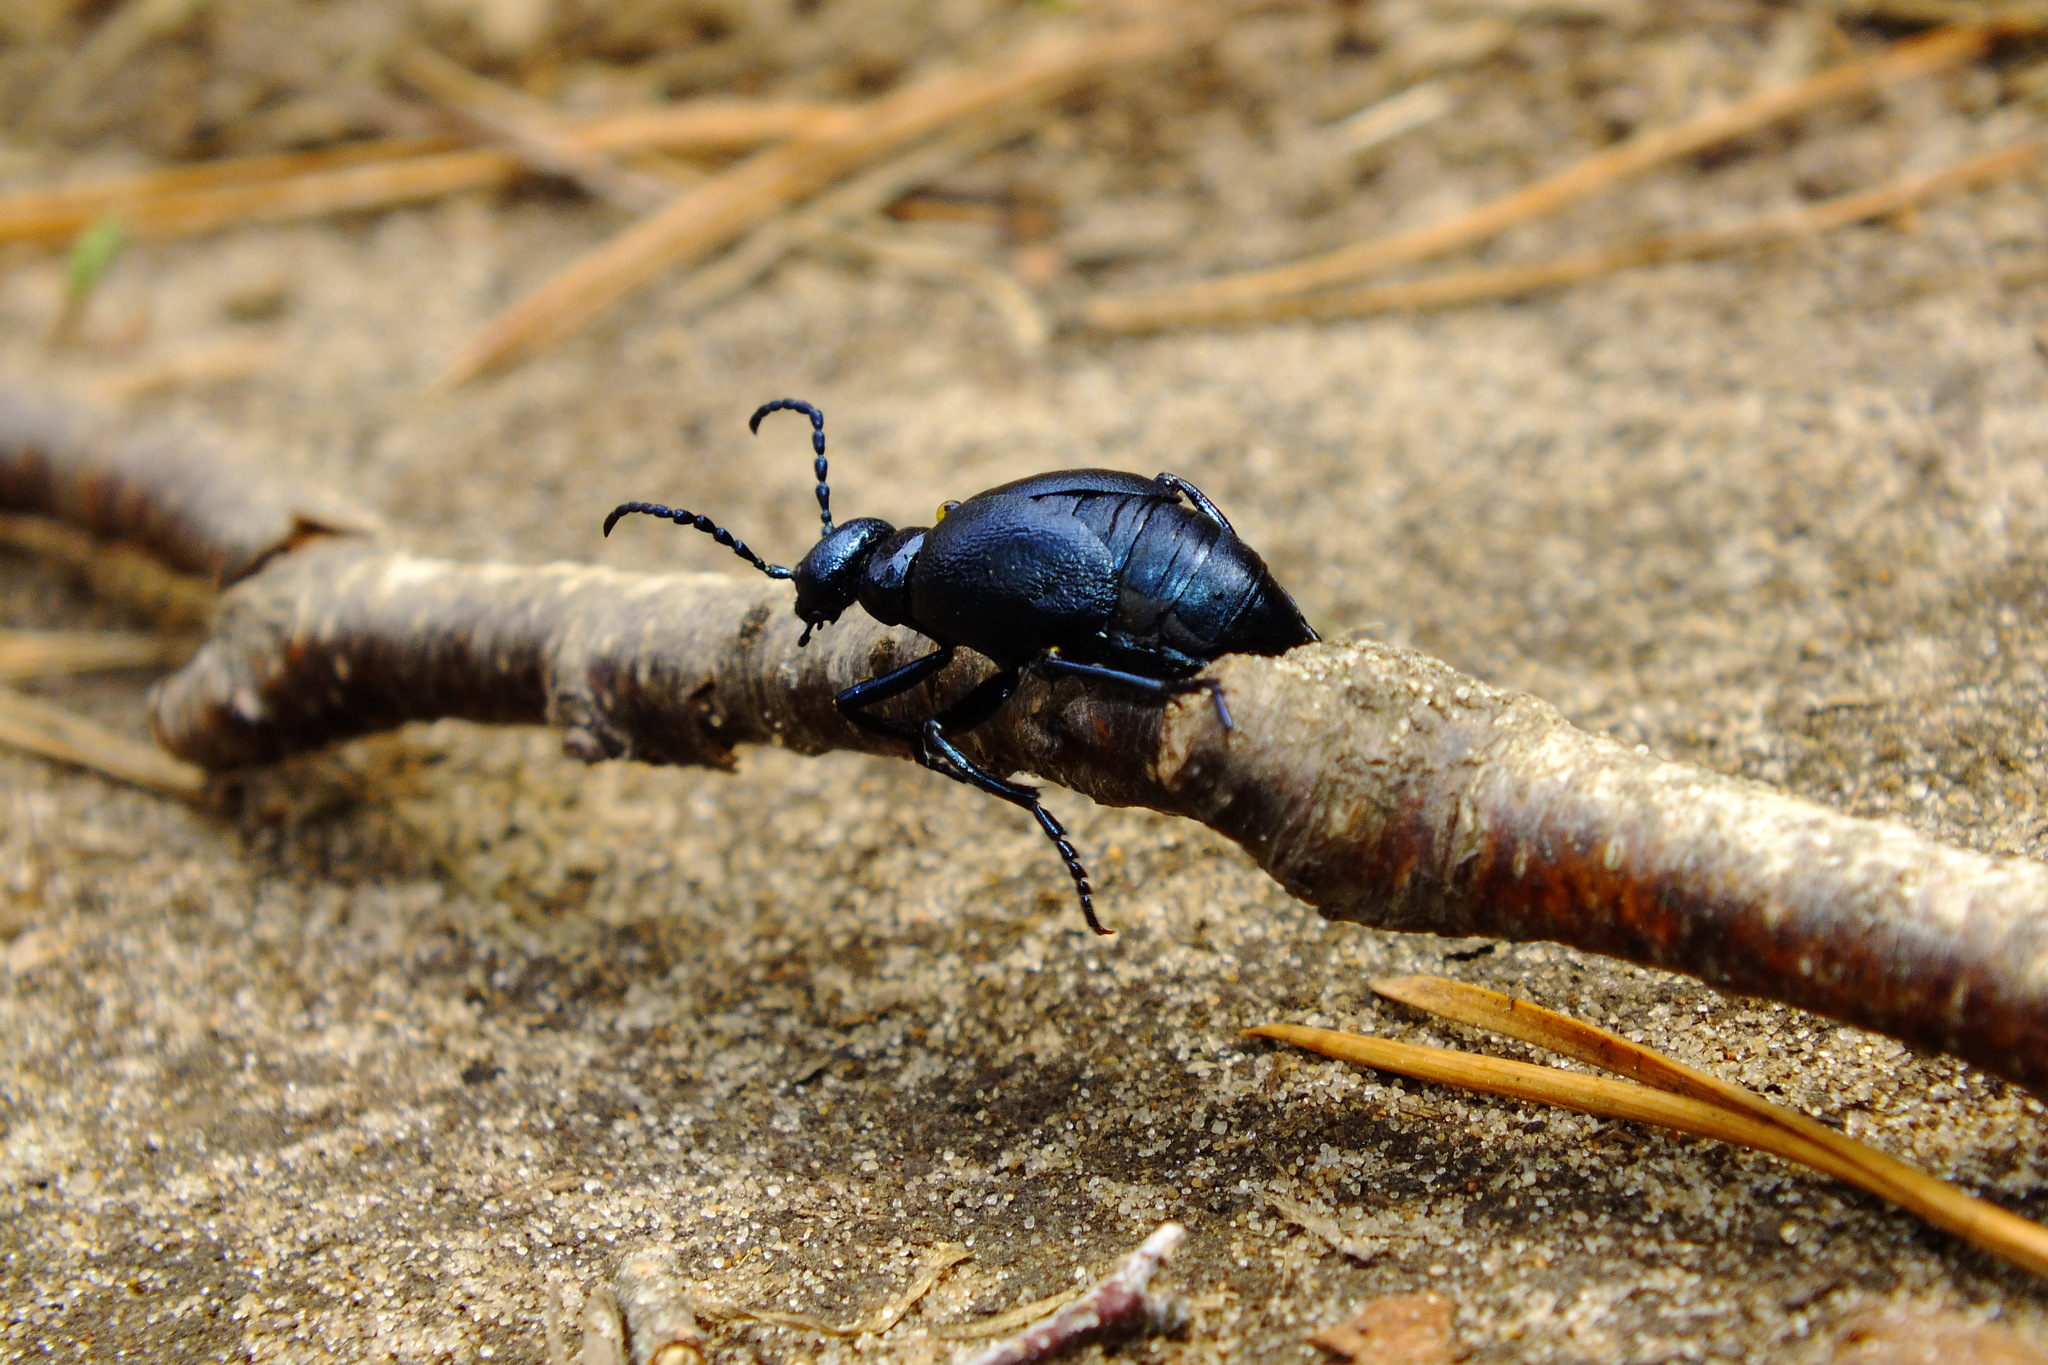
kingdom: Animalia
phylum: Arthropoda
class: Insecta
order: Coleoptera
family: Meloidae
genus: Meloe
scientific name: Meloe violaceus
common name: Violet oil-beetle
